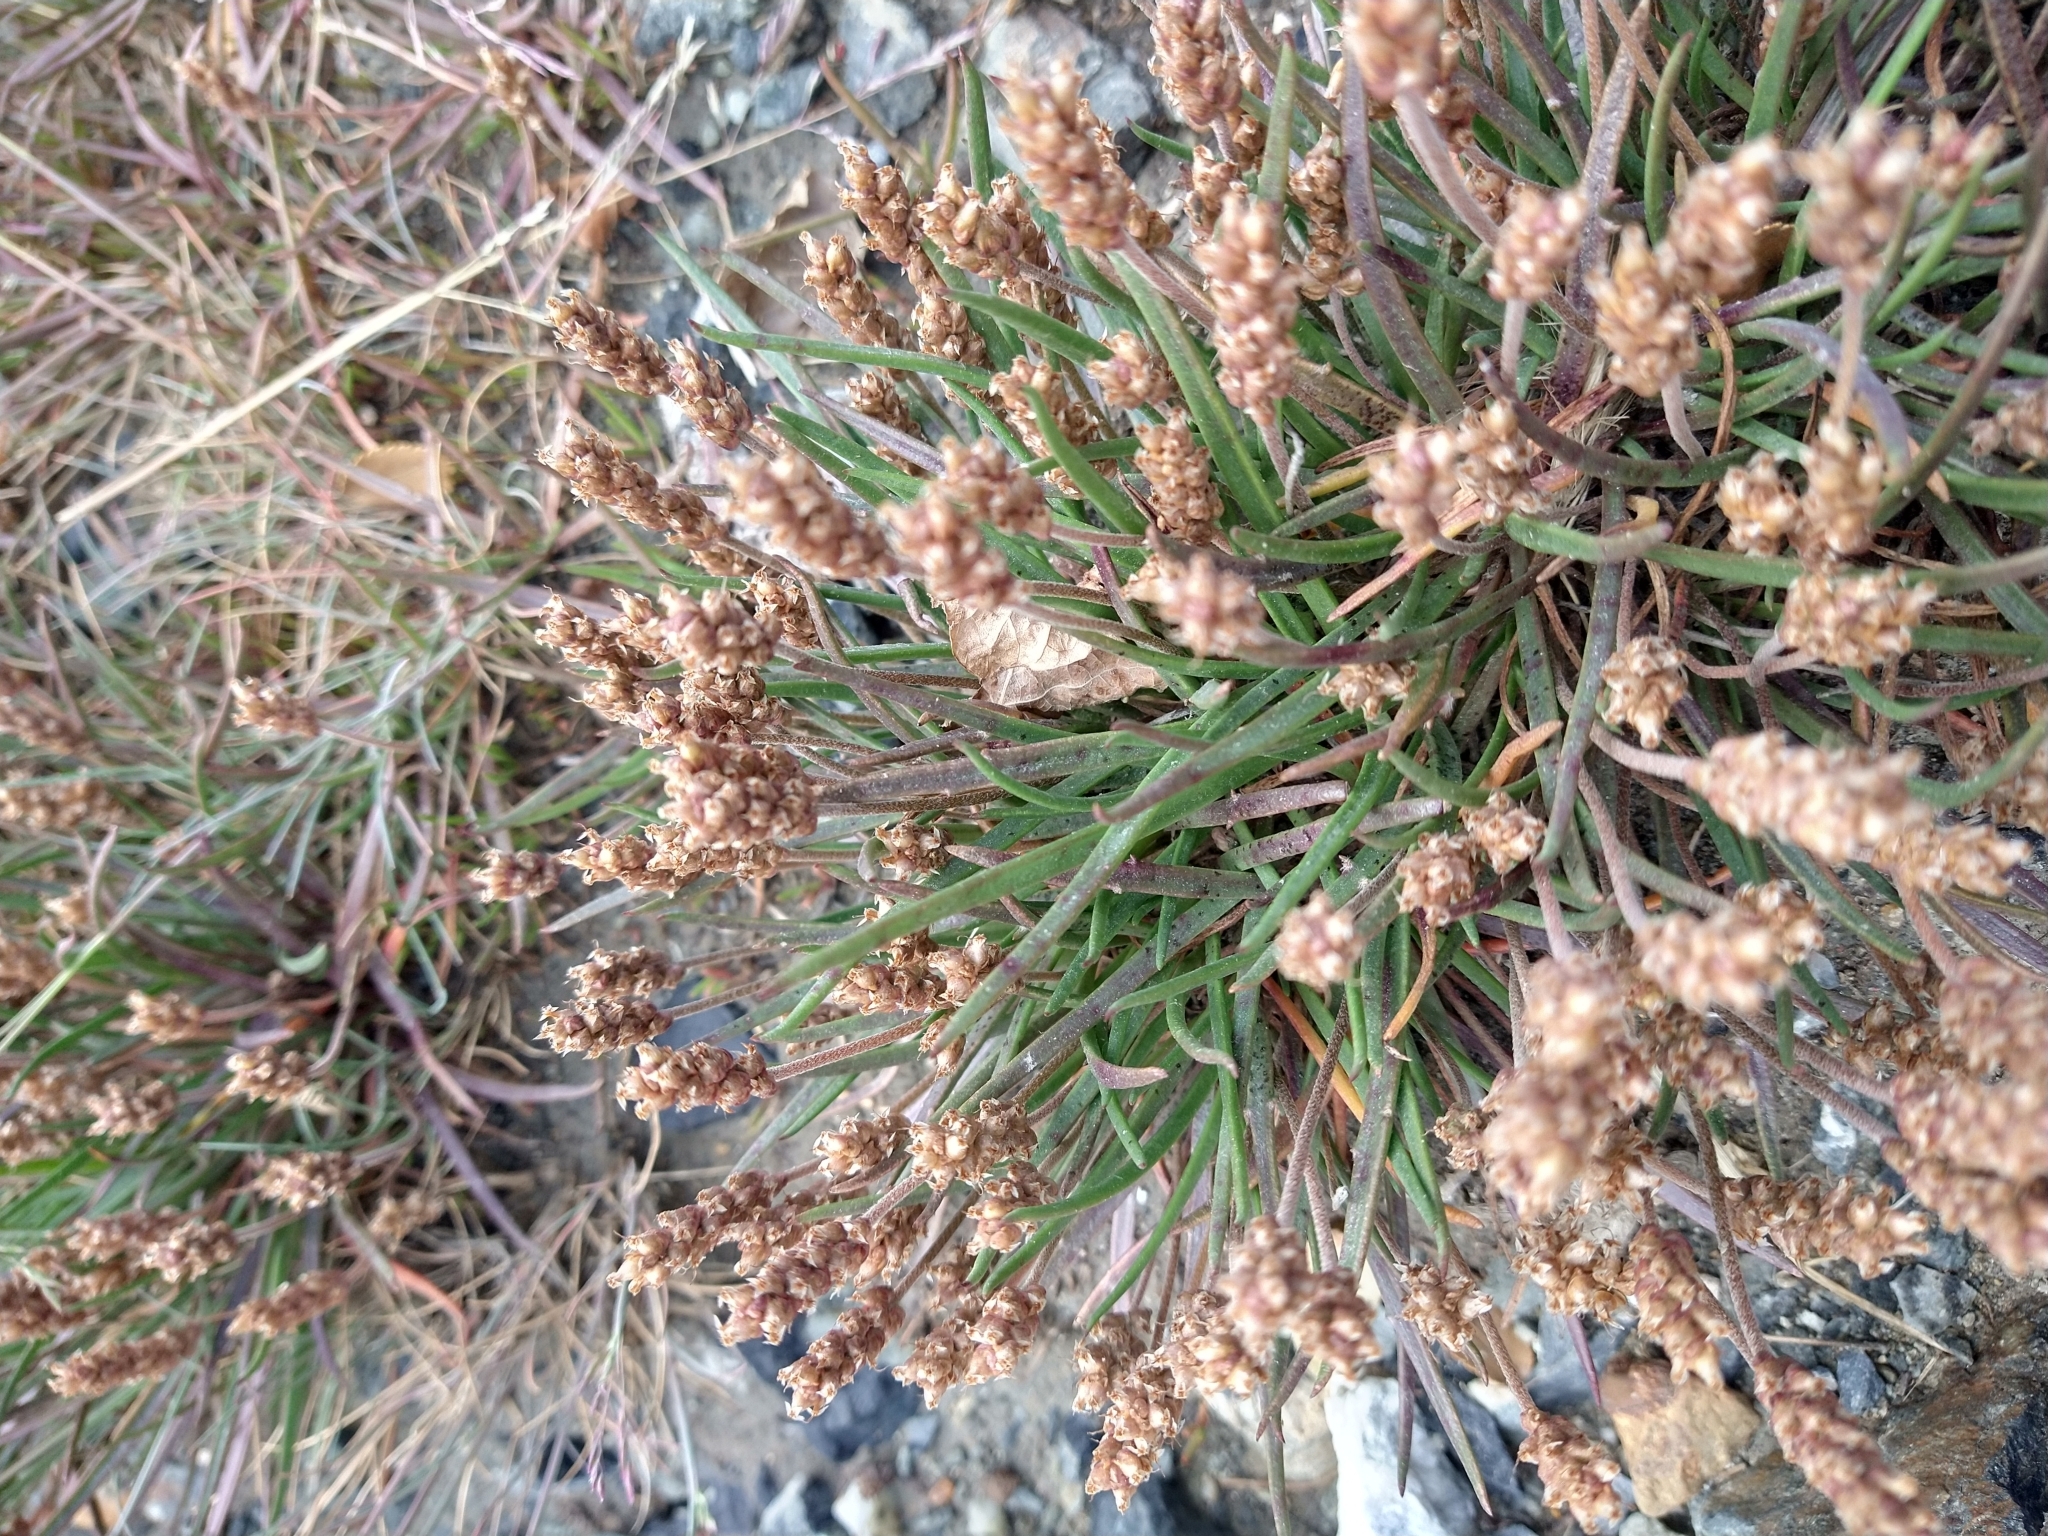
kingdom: Plantae
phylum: Tracheophyta
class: Magnoliopsida
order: Lamiales
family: Plantaginaceae
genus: Plantago
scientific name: Plantago maritima
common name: Sea plantain
